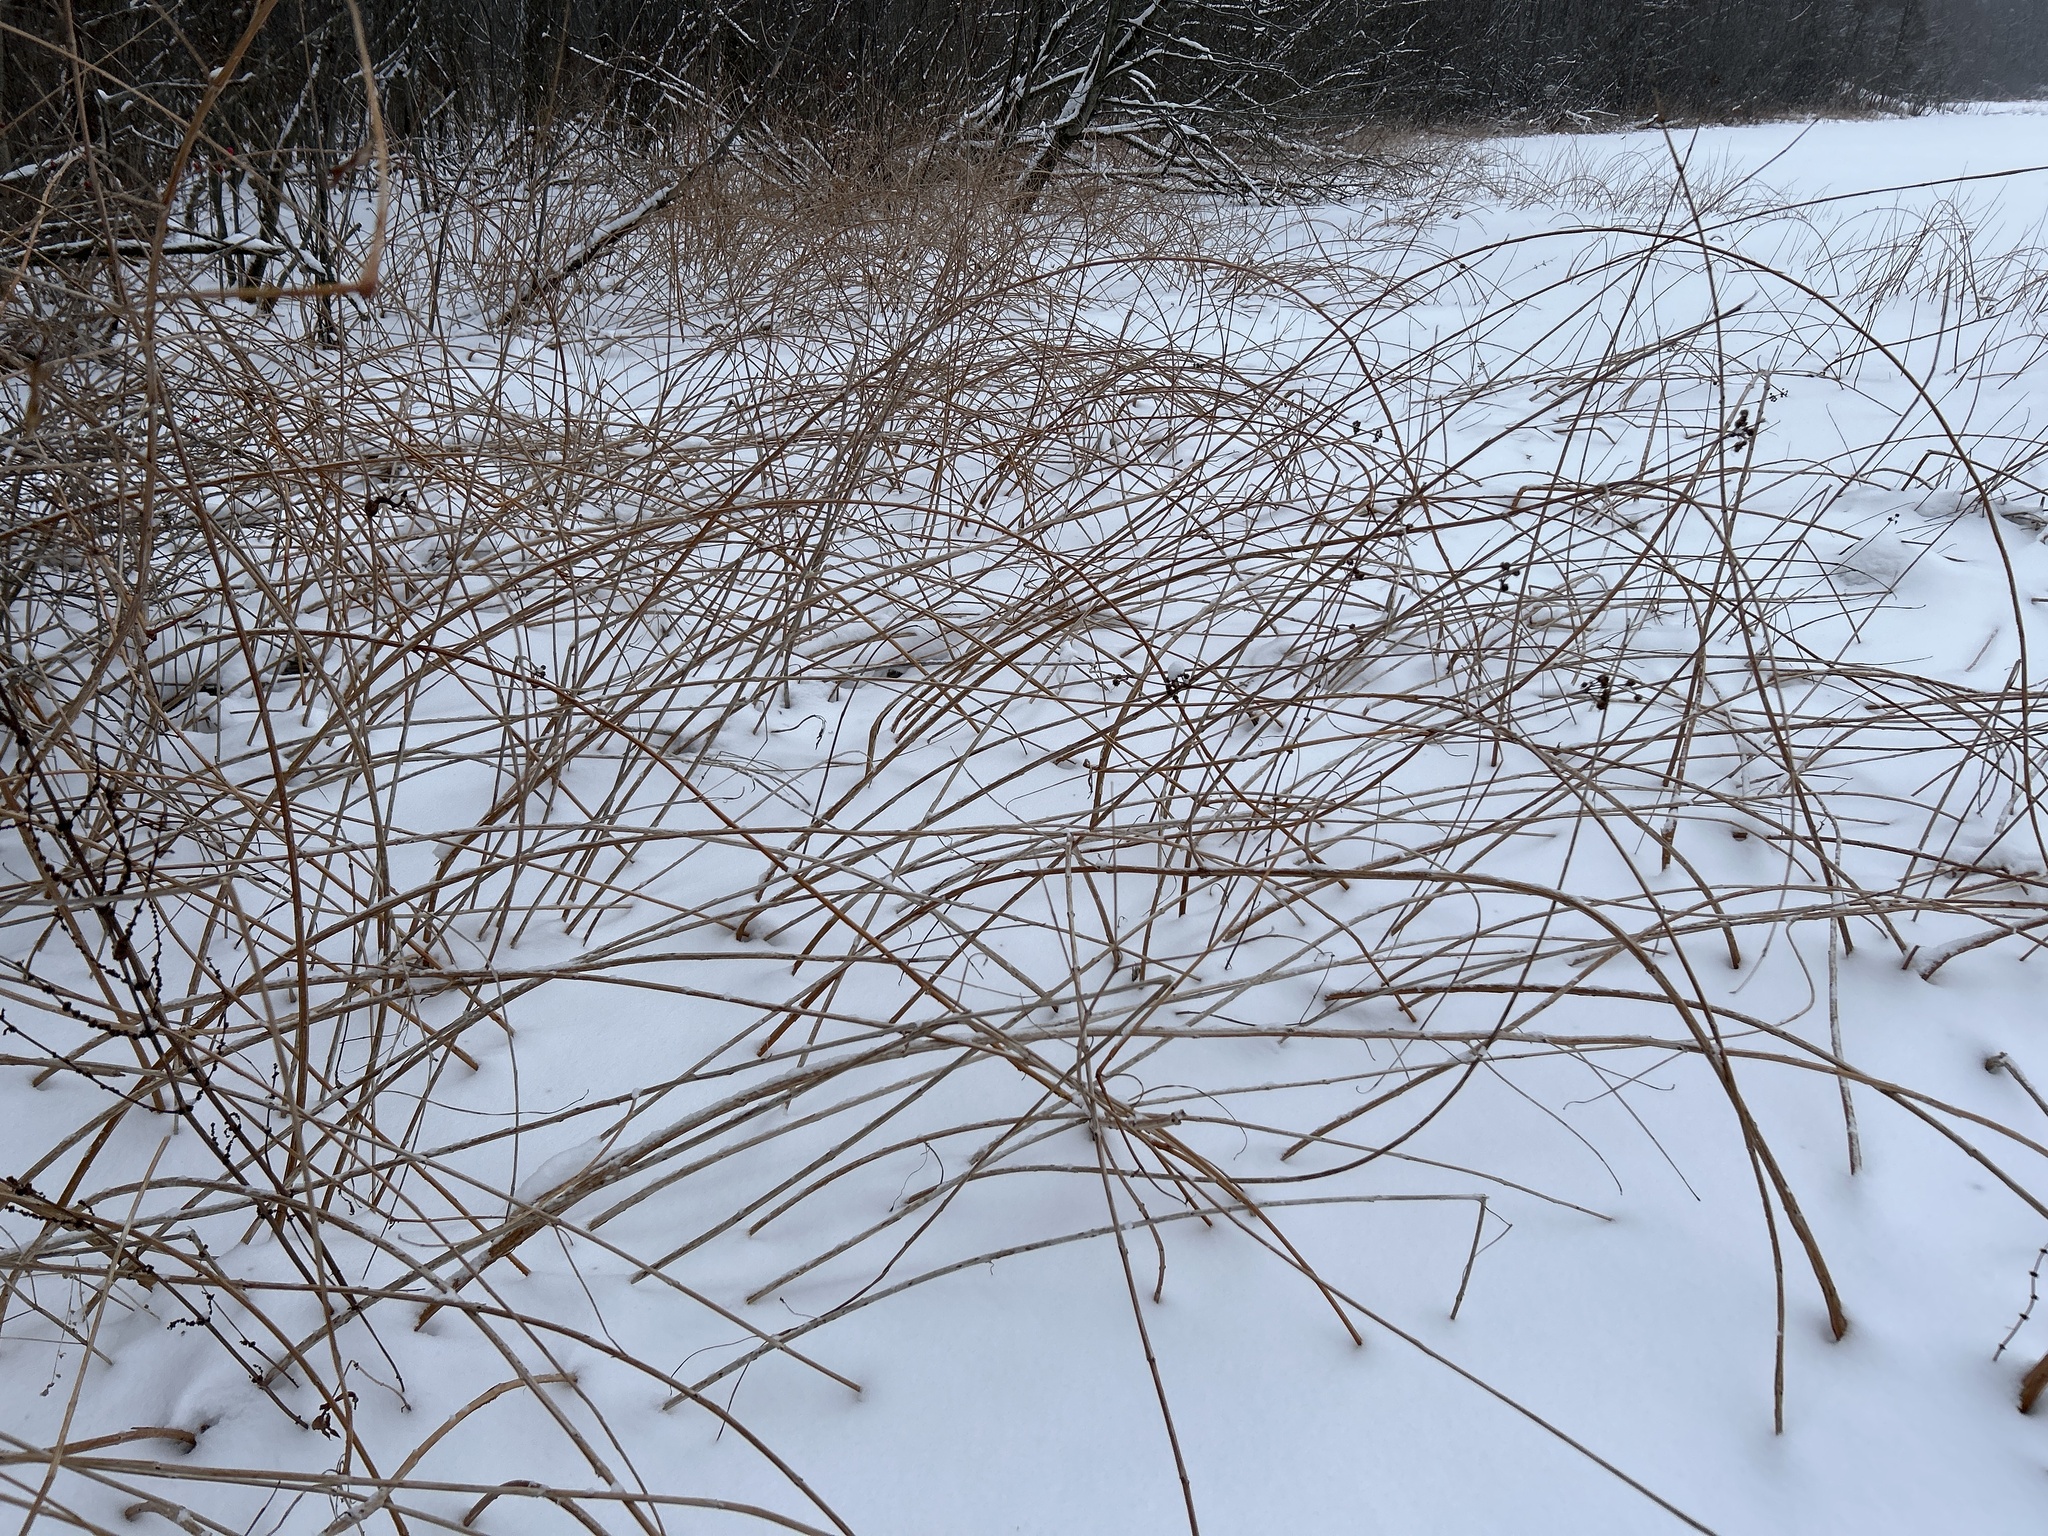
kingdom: Plantae
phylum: Tracheophyta
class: Magnoliopsida
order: Myrtales
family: Lythraceae
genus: Decodon
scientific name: Decodon verticillatus
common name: Hairy swamp loosestrife
